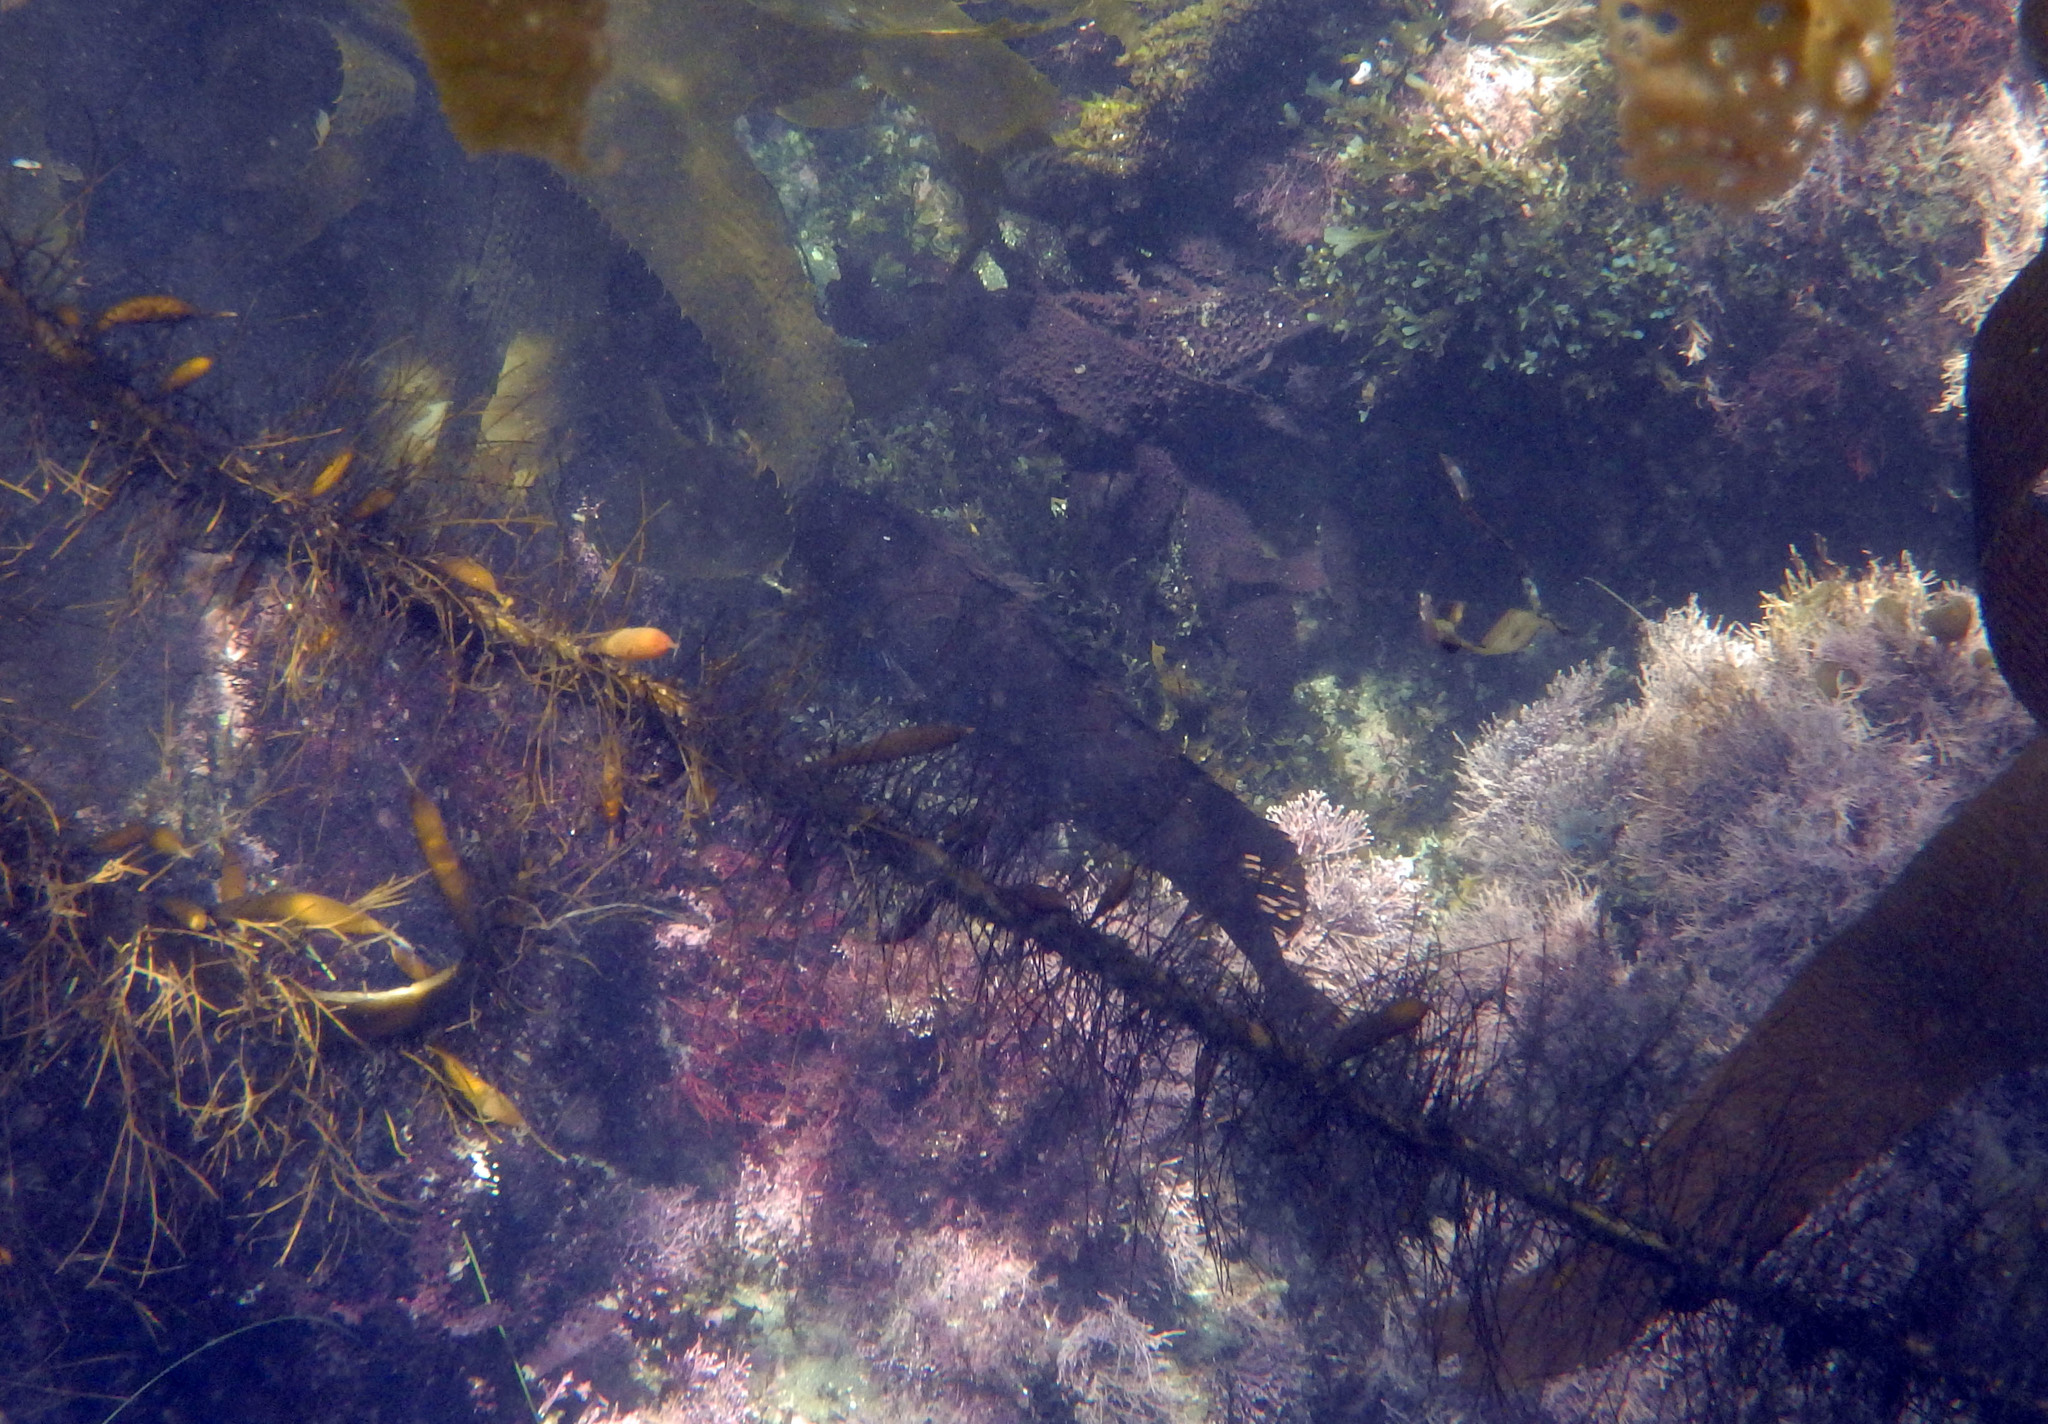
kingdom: Animalia
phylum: Chordata
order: Perciformes
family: Clinidae
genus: Heterostichus
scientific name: Heterostichus rostratus
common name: Giant kelpfish
